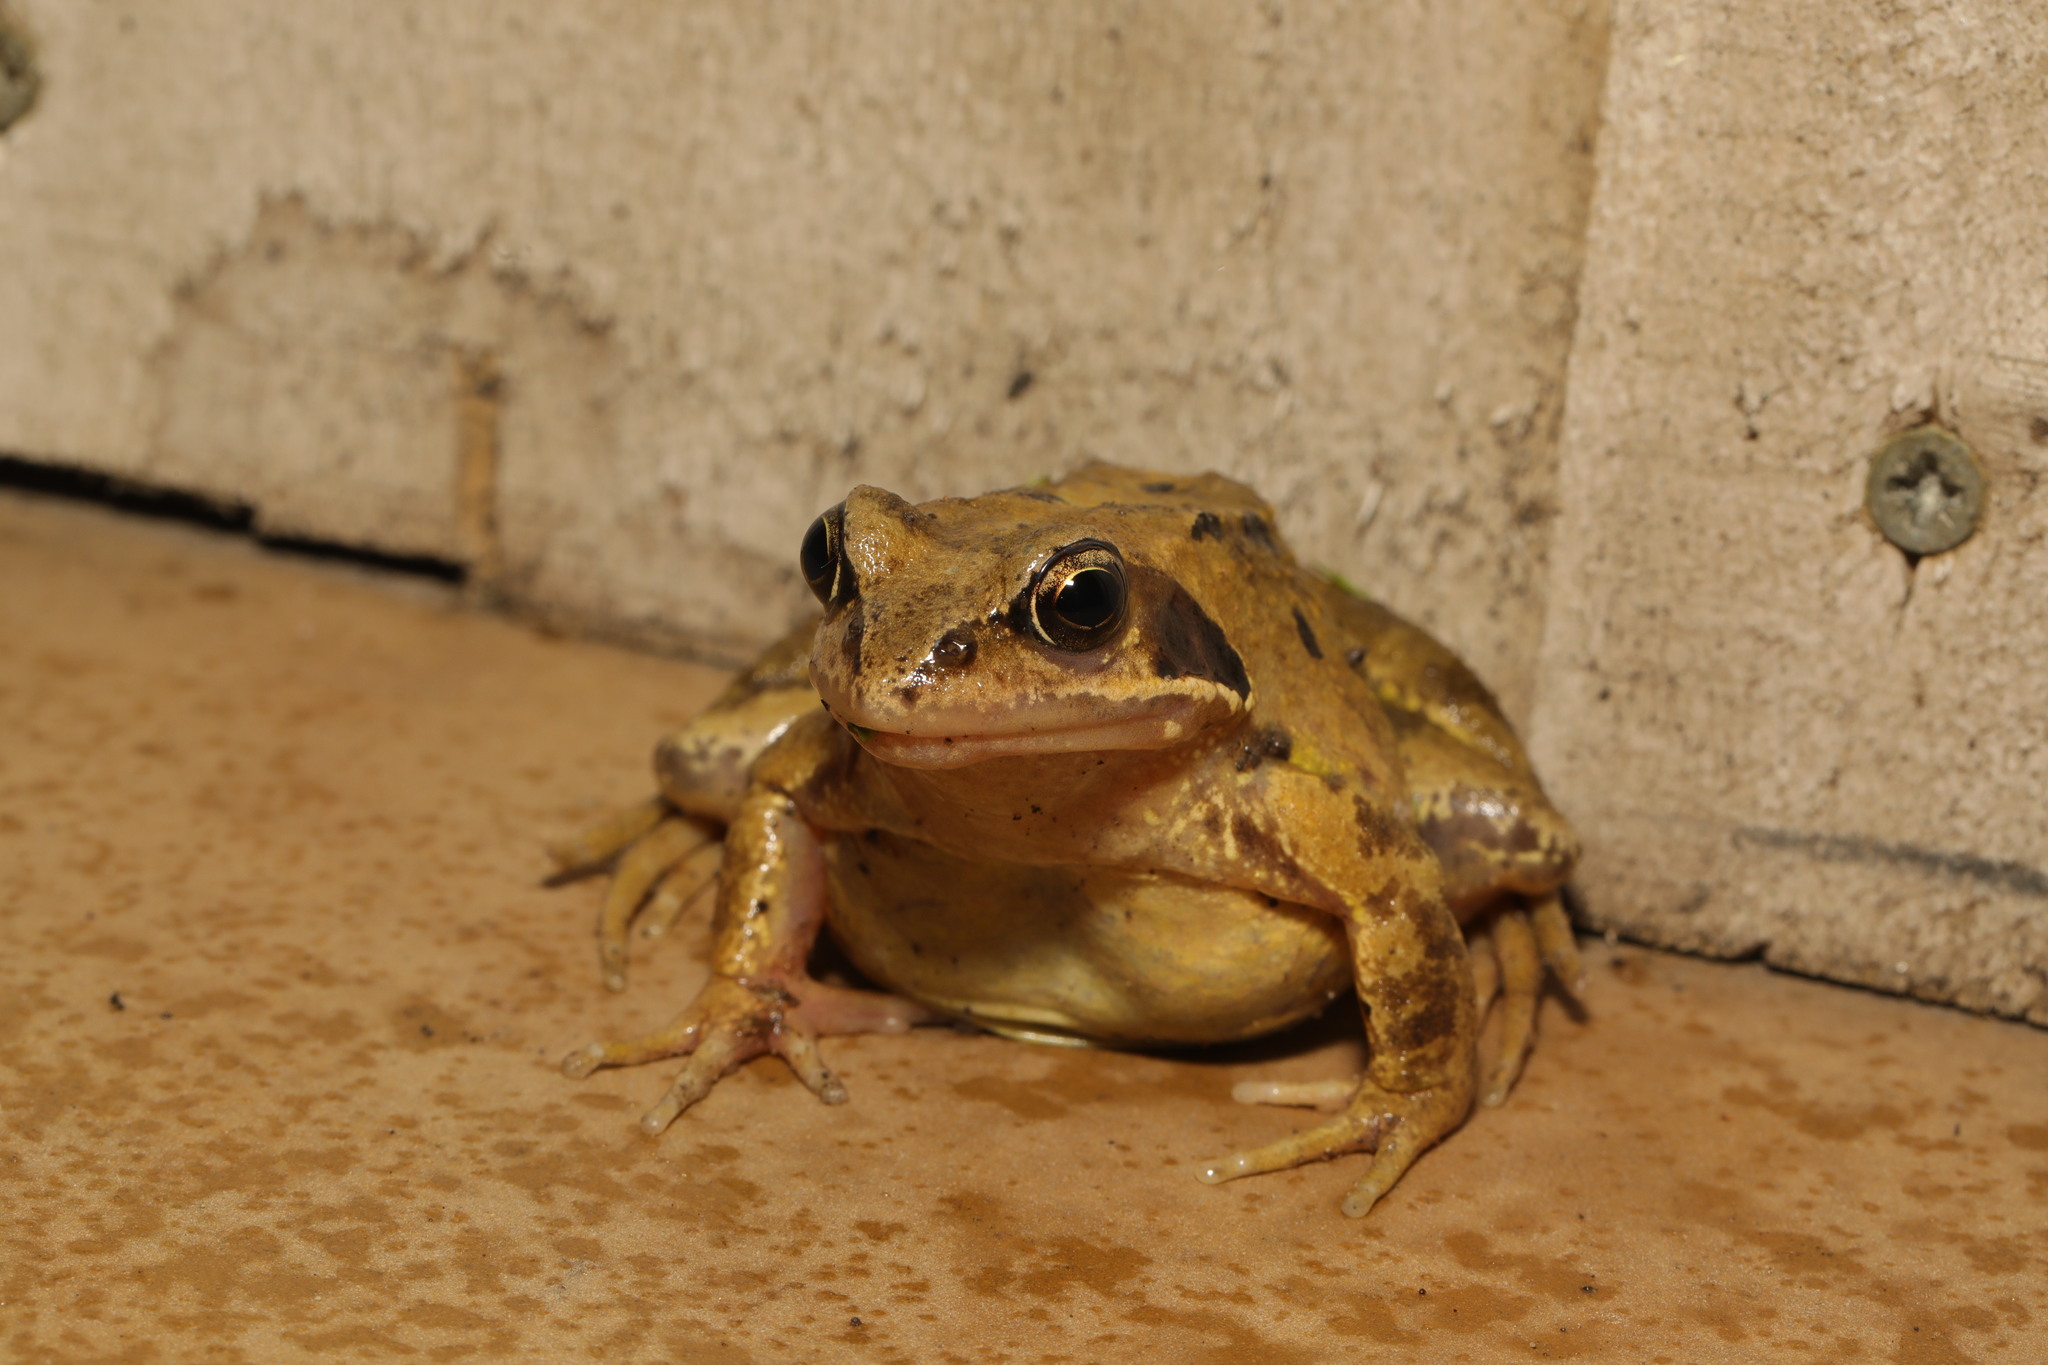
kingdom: Animalia
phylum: Chordata
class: Amphibia
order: Anura
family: Ranidae
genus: Rana
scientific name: Rana temporaria
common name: Common frog
